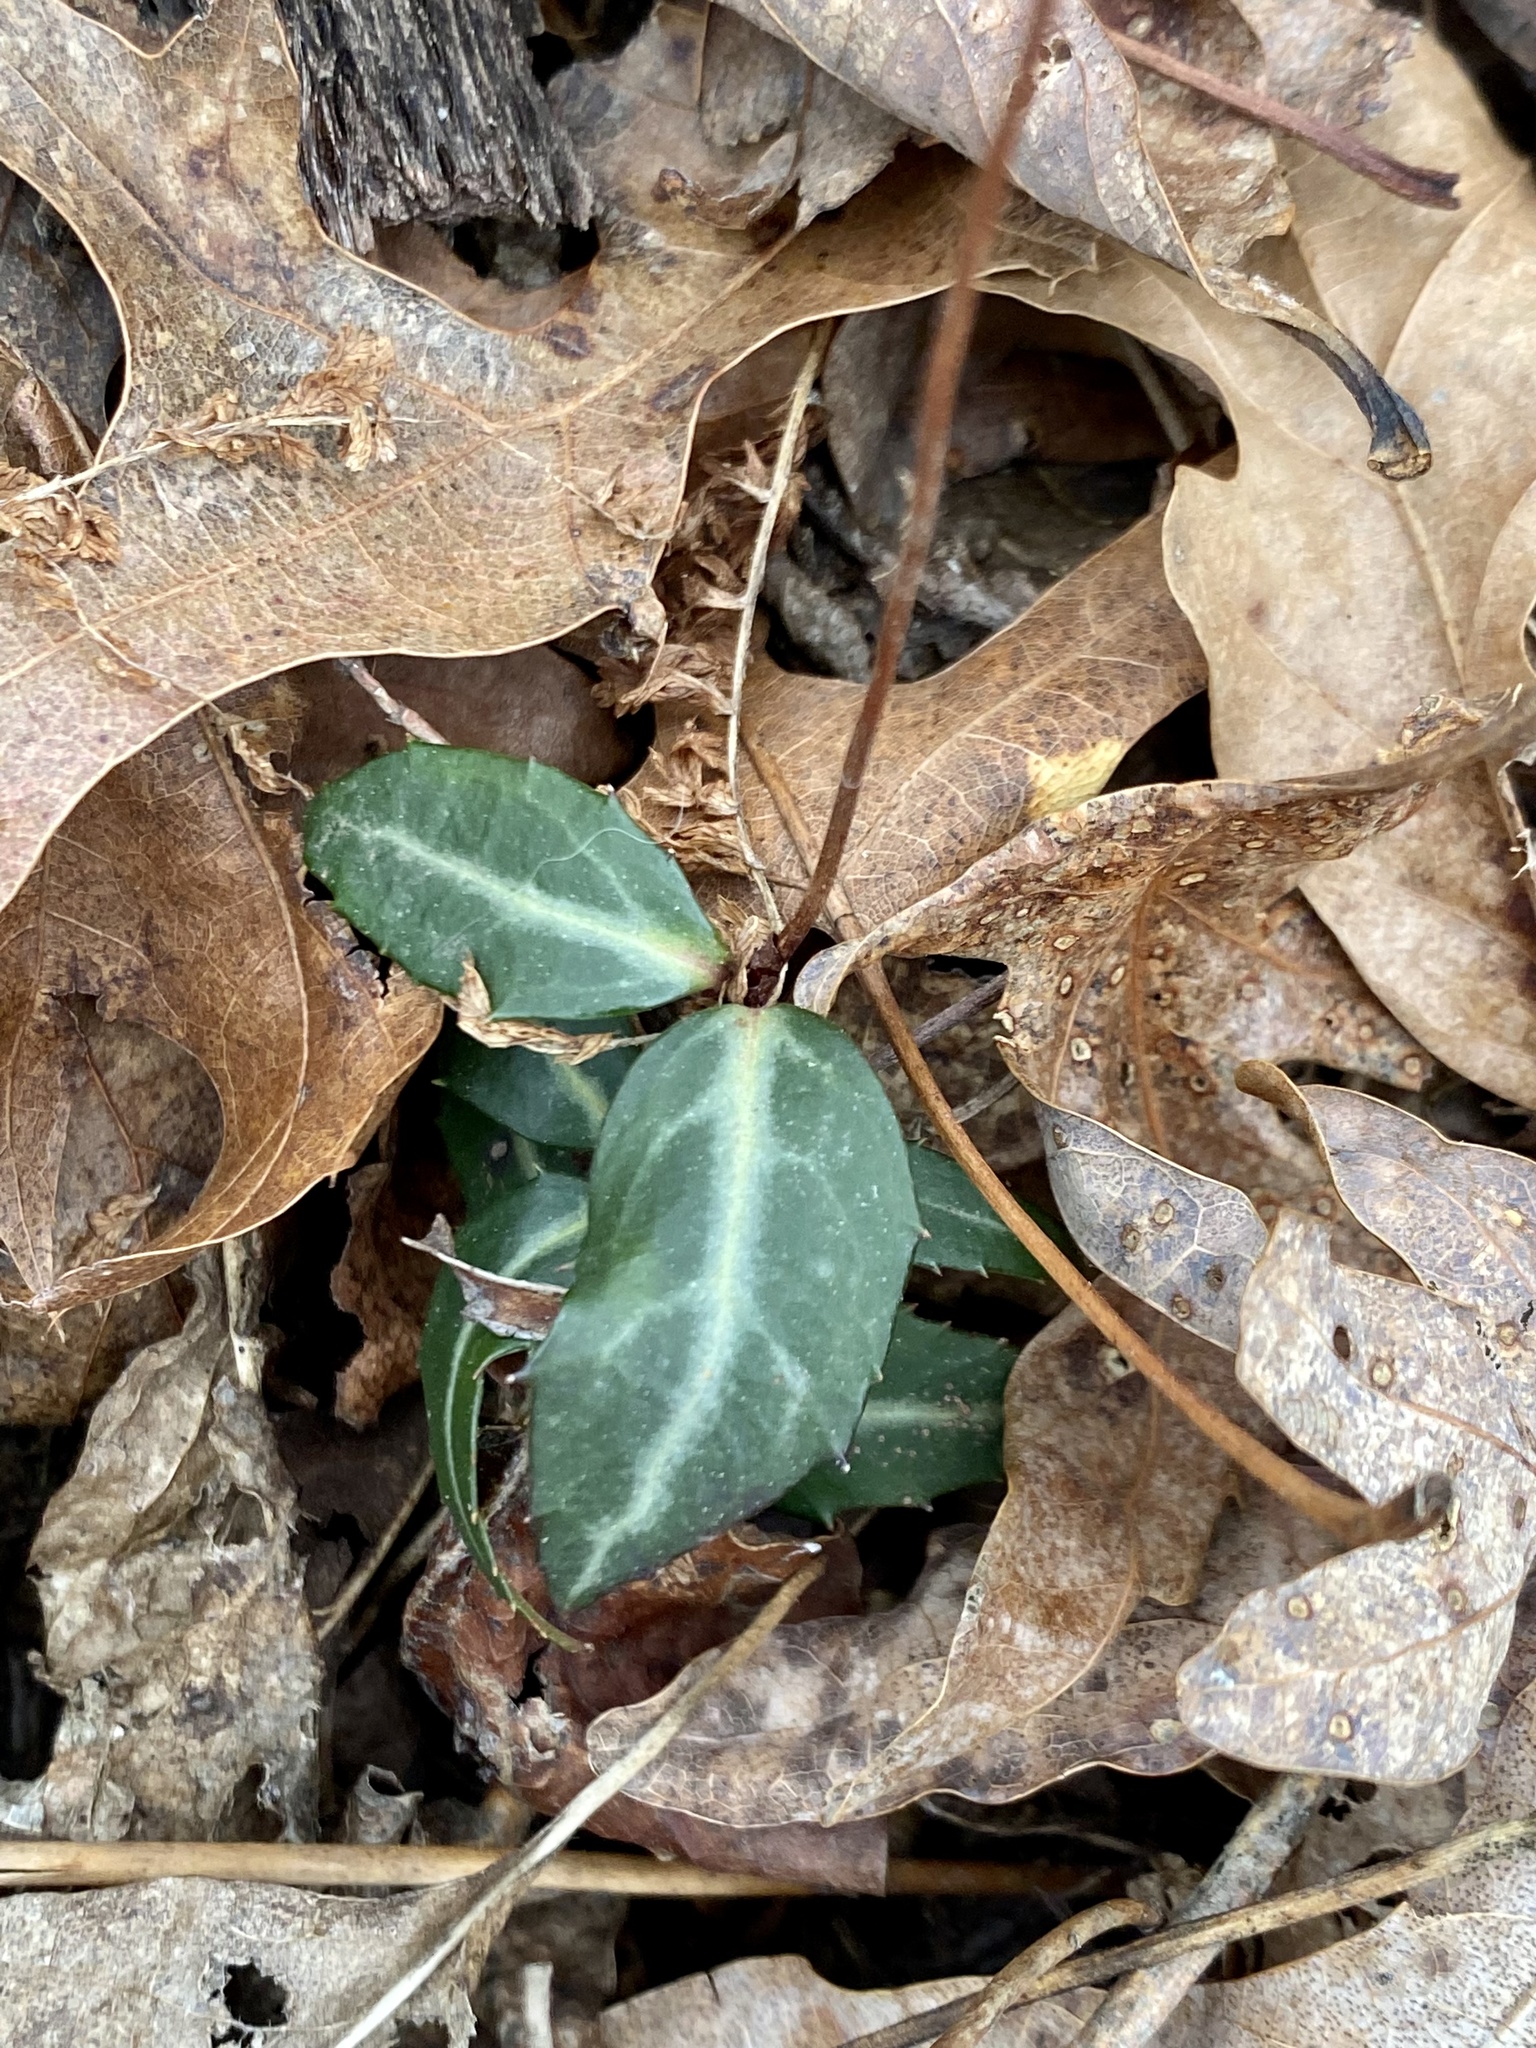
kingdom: Plantae
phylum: Tracheophyta
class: Magnoliopsida
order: Ericales
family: Ericaceae
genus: Chimaphila
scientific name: Chimaphila maculata
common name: Spotted pipsissewa
